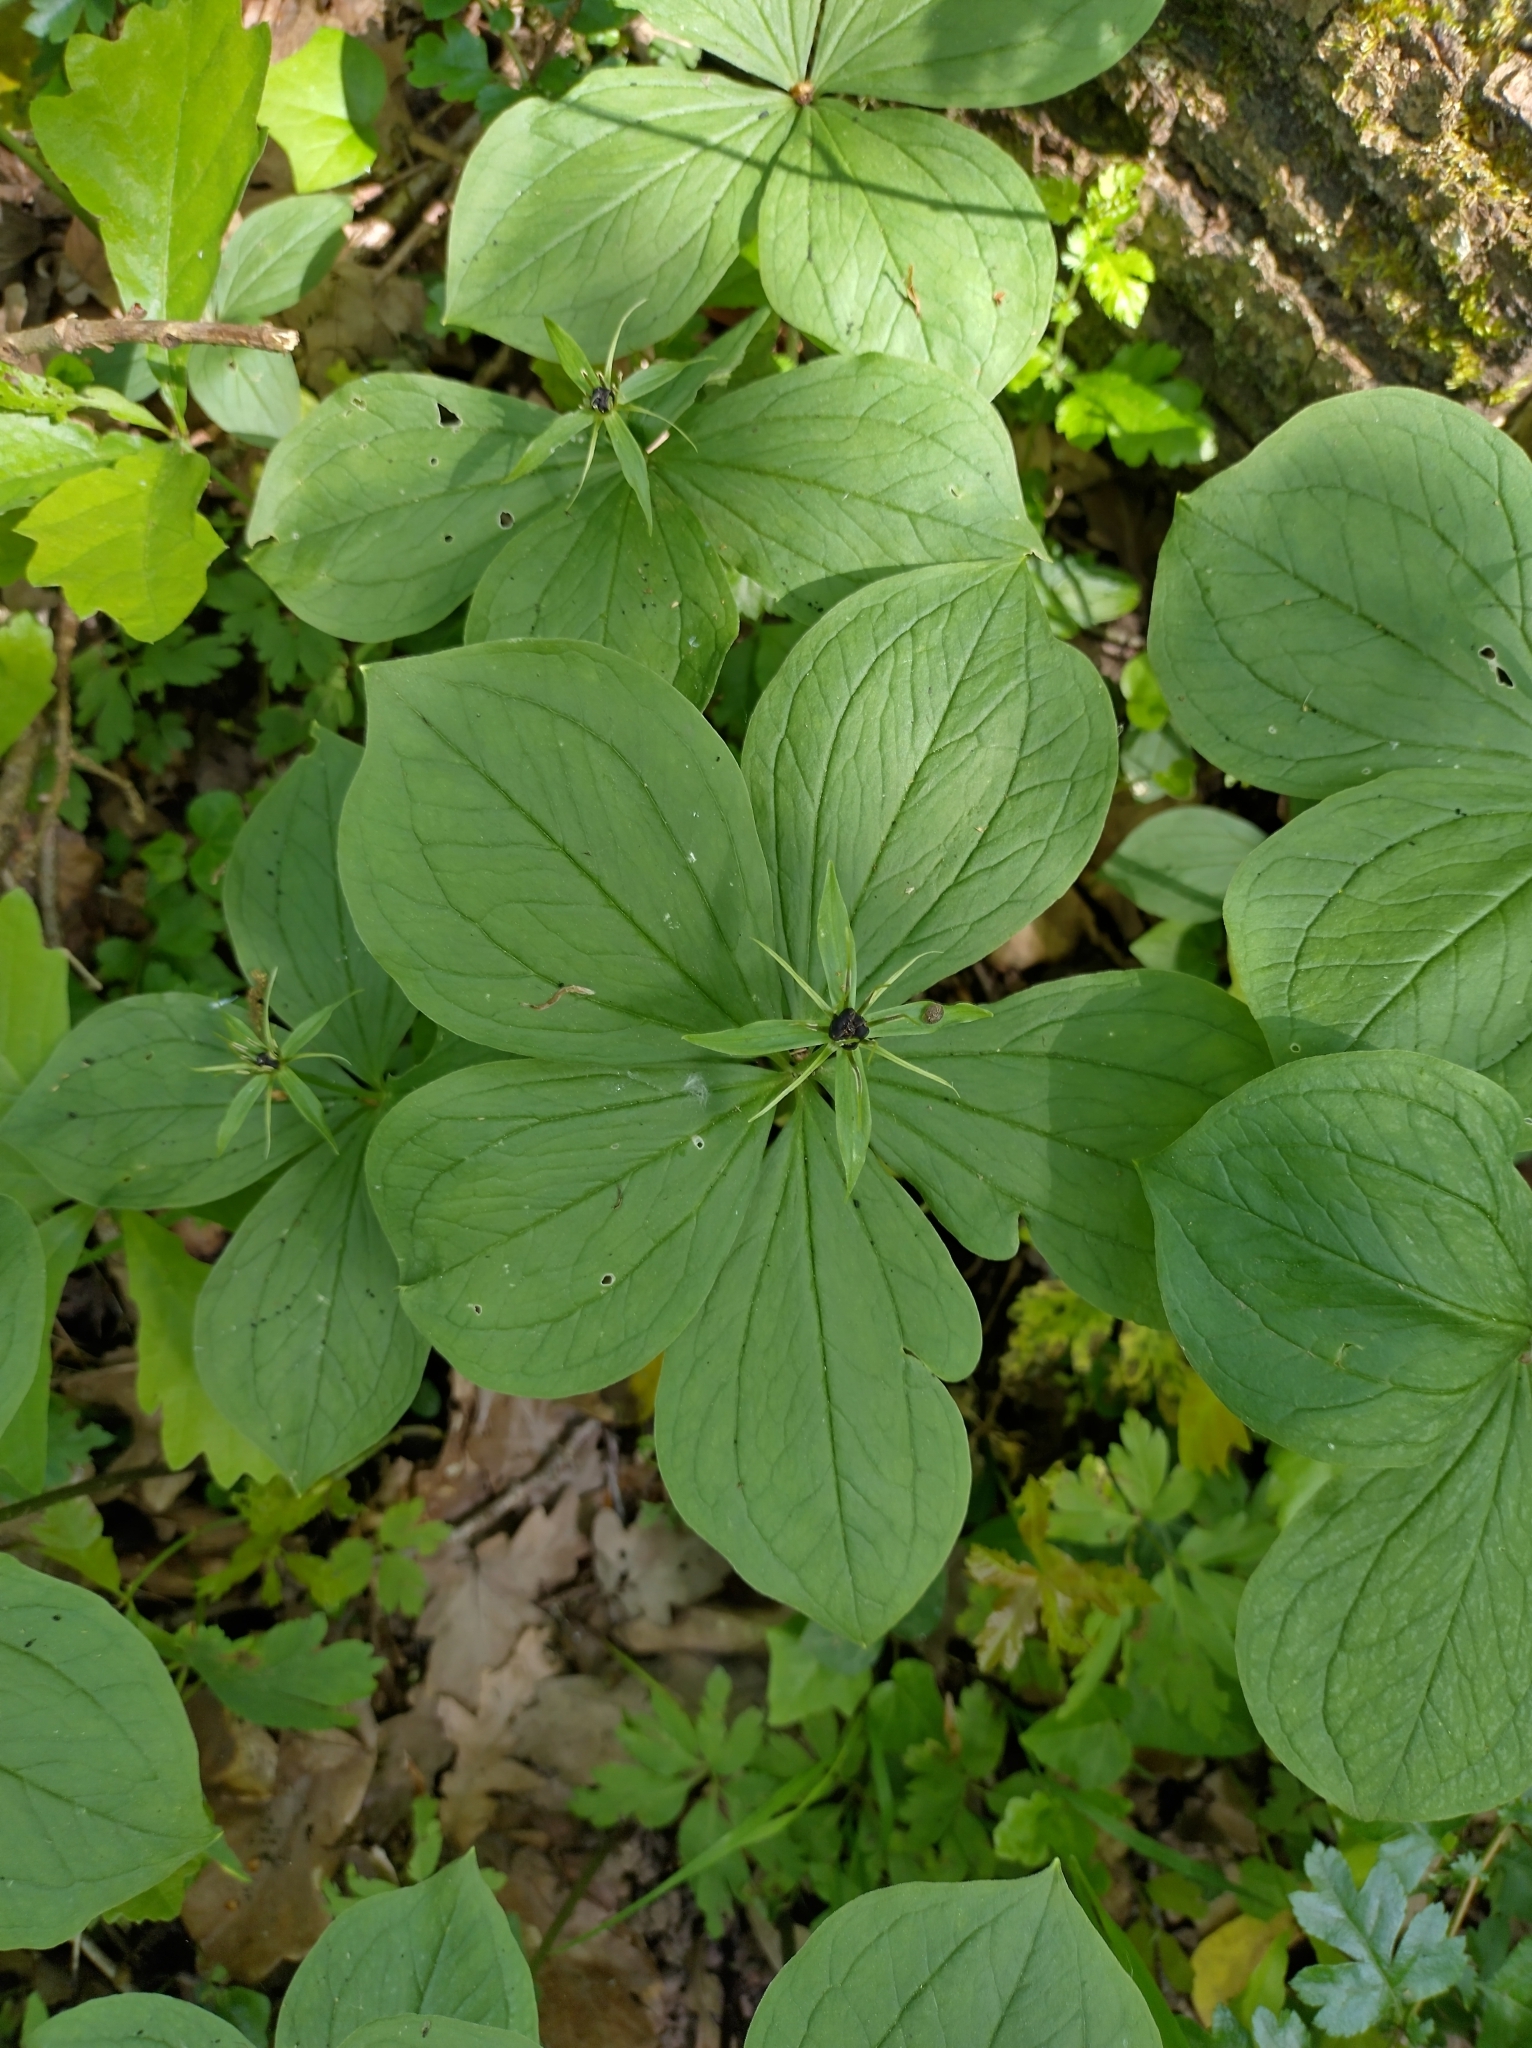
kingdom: Plantae
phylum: Tracheophyta
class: Liliopsida
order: Liliales
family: Melanthiaceae
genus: Paris
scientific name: Paris quadrifolia
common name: Herb-paris
